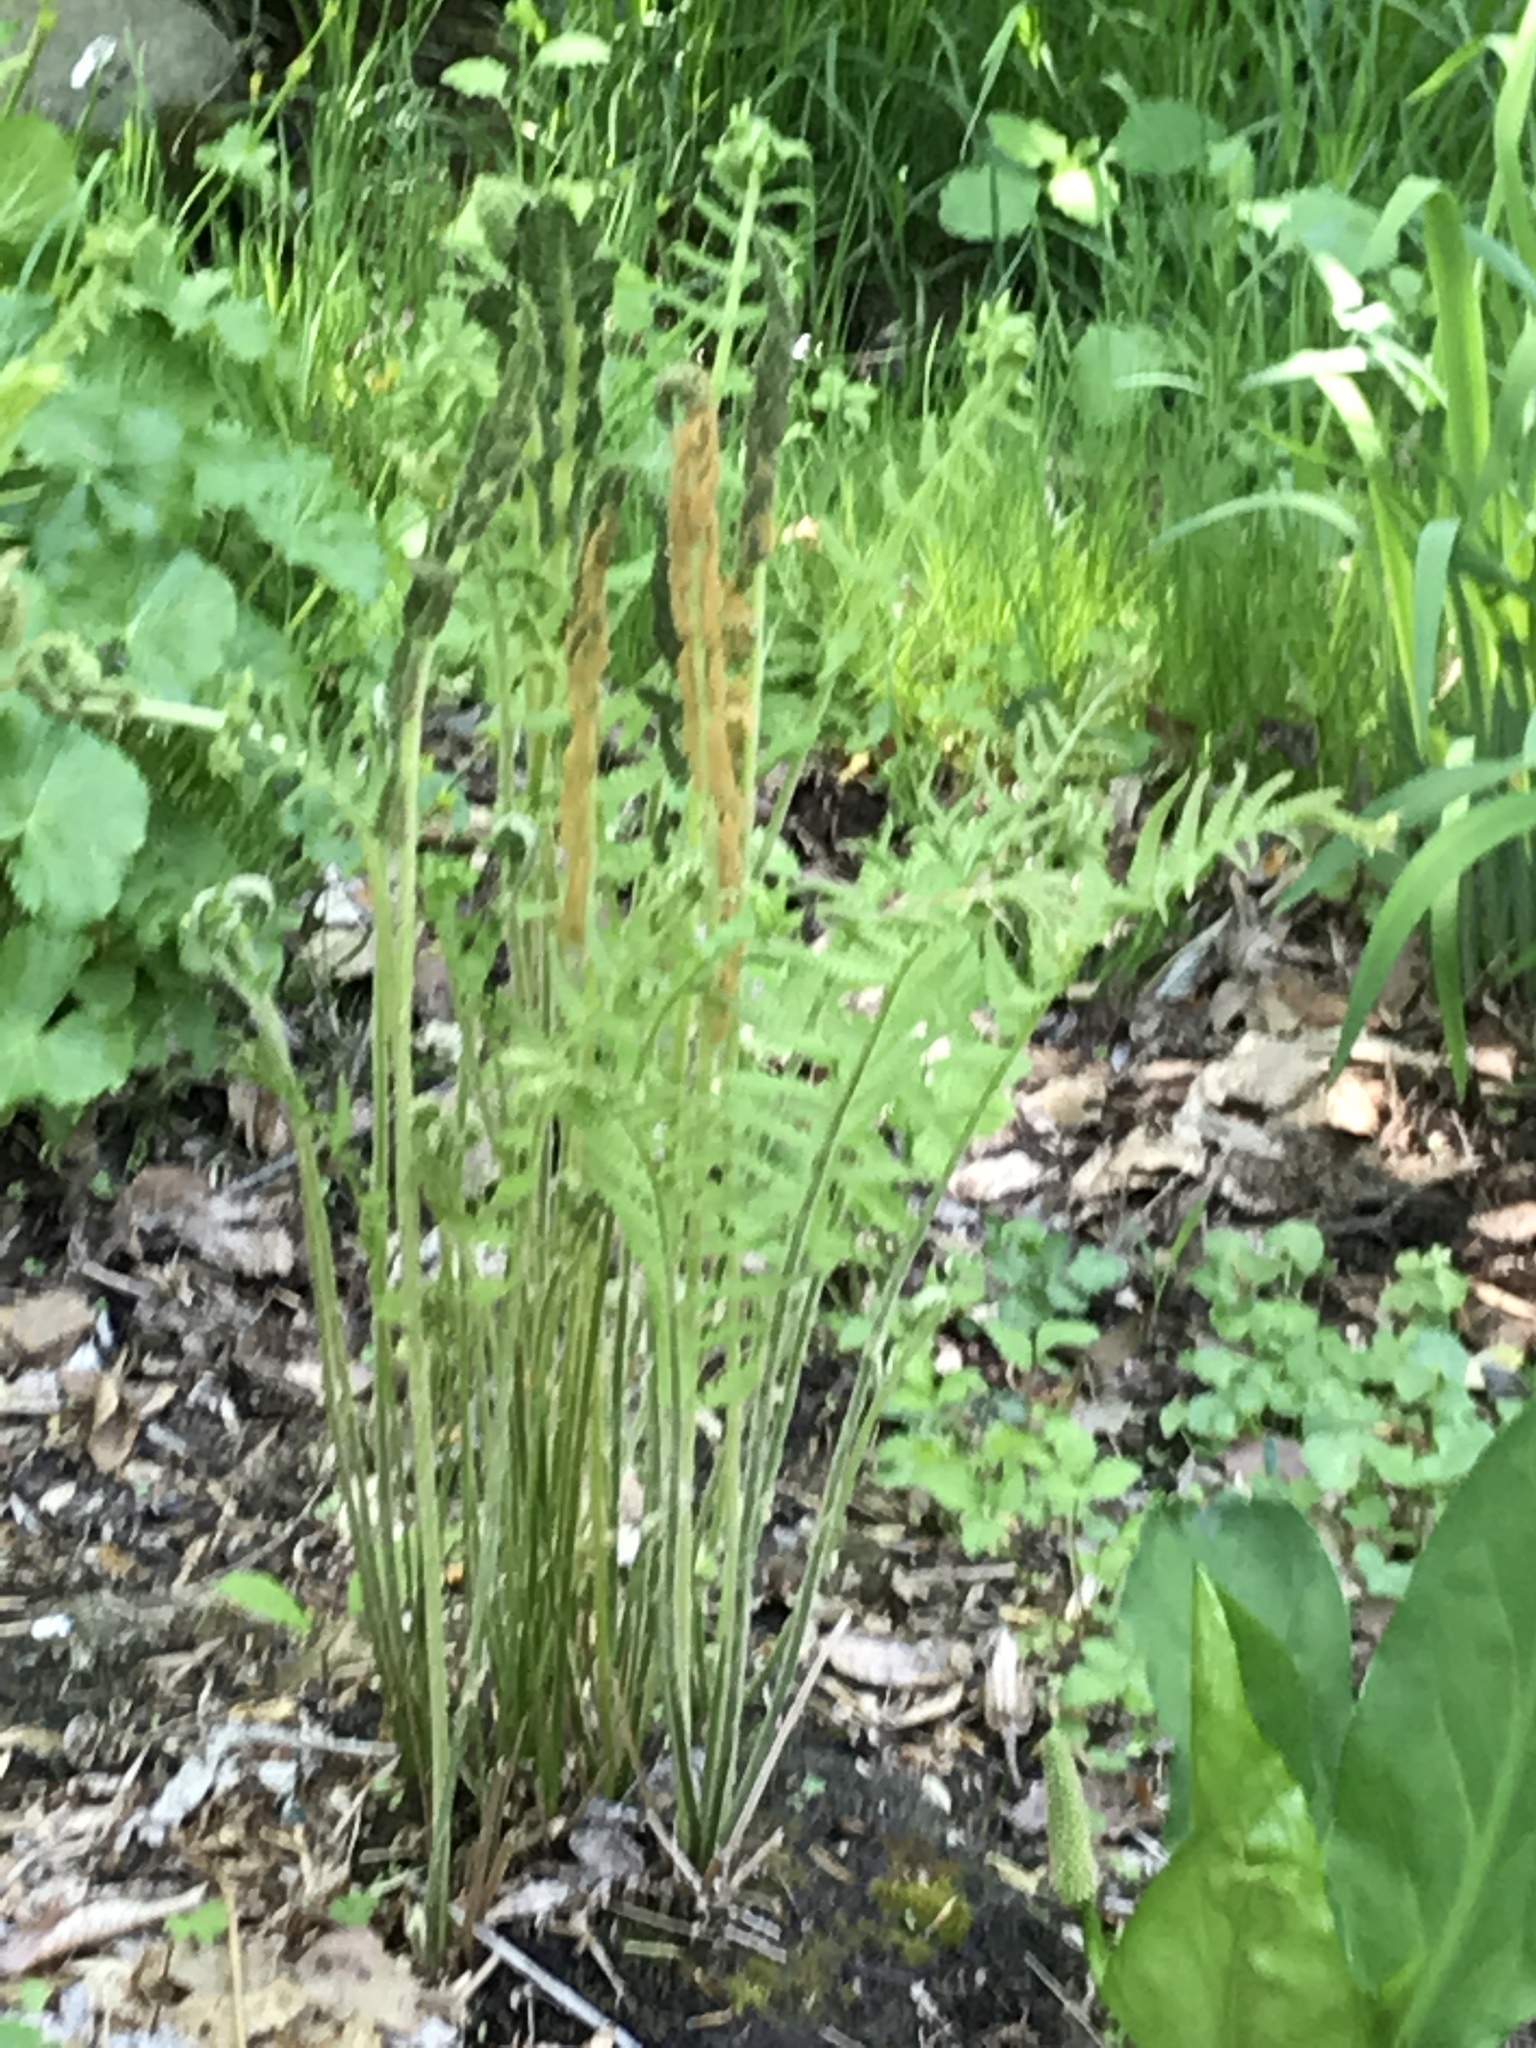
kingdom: Plantae
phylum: Tracheophyta
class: Polypodiopsida
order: Osmundales
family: Osmundaceae
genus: Osmundastrum
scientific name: Osmundastrum cinnamomeum
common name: Cinnamon fern
